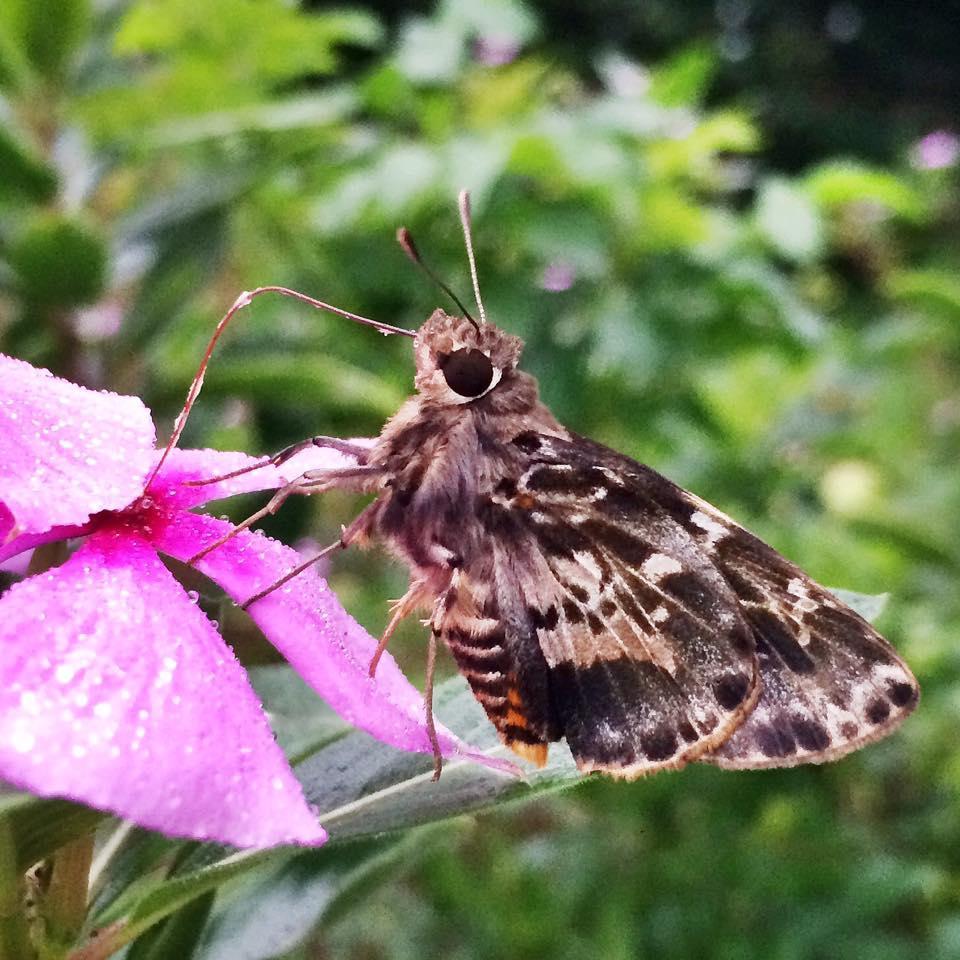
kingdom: Animalia
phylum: Arthropoda
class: Insecta
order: Lepidoptera
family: Hesperiidae
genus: Artitropa
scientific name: Artitropa erinnys
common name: Bush nightfighter
